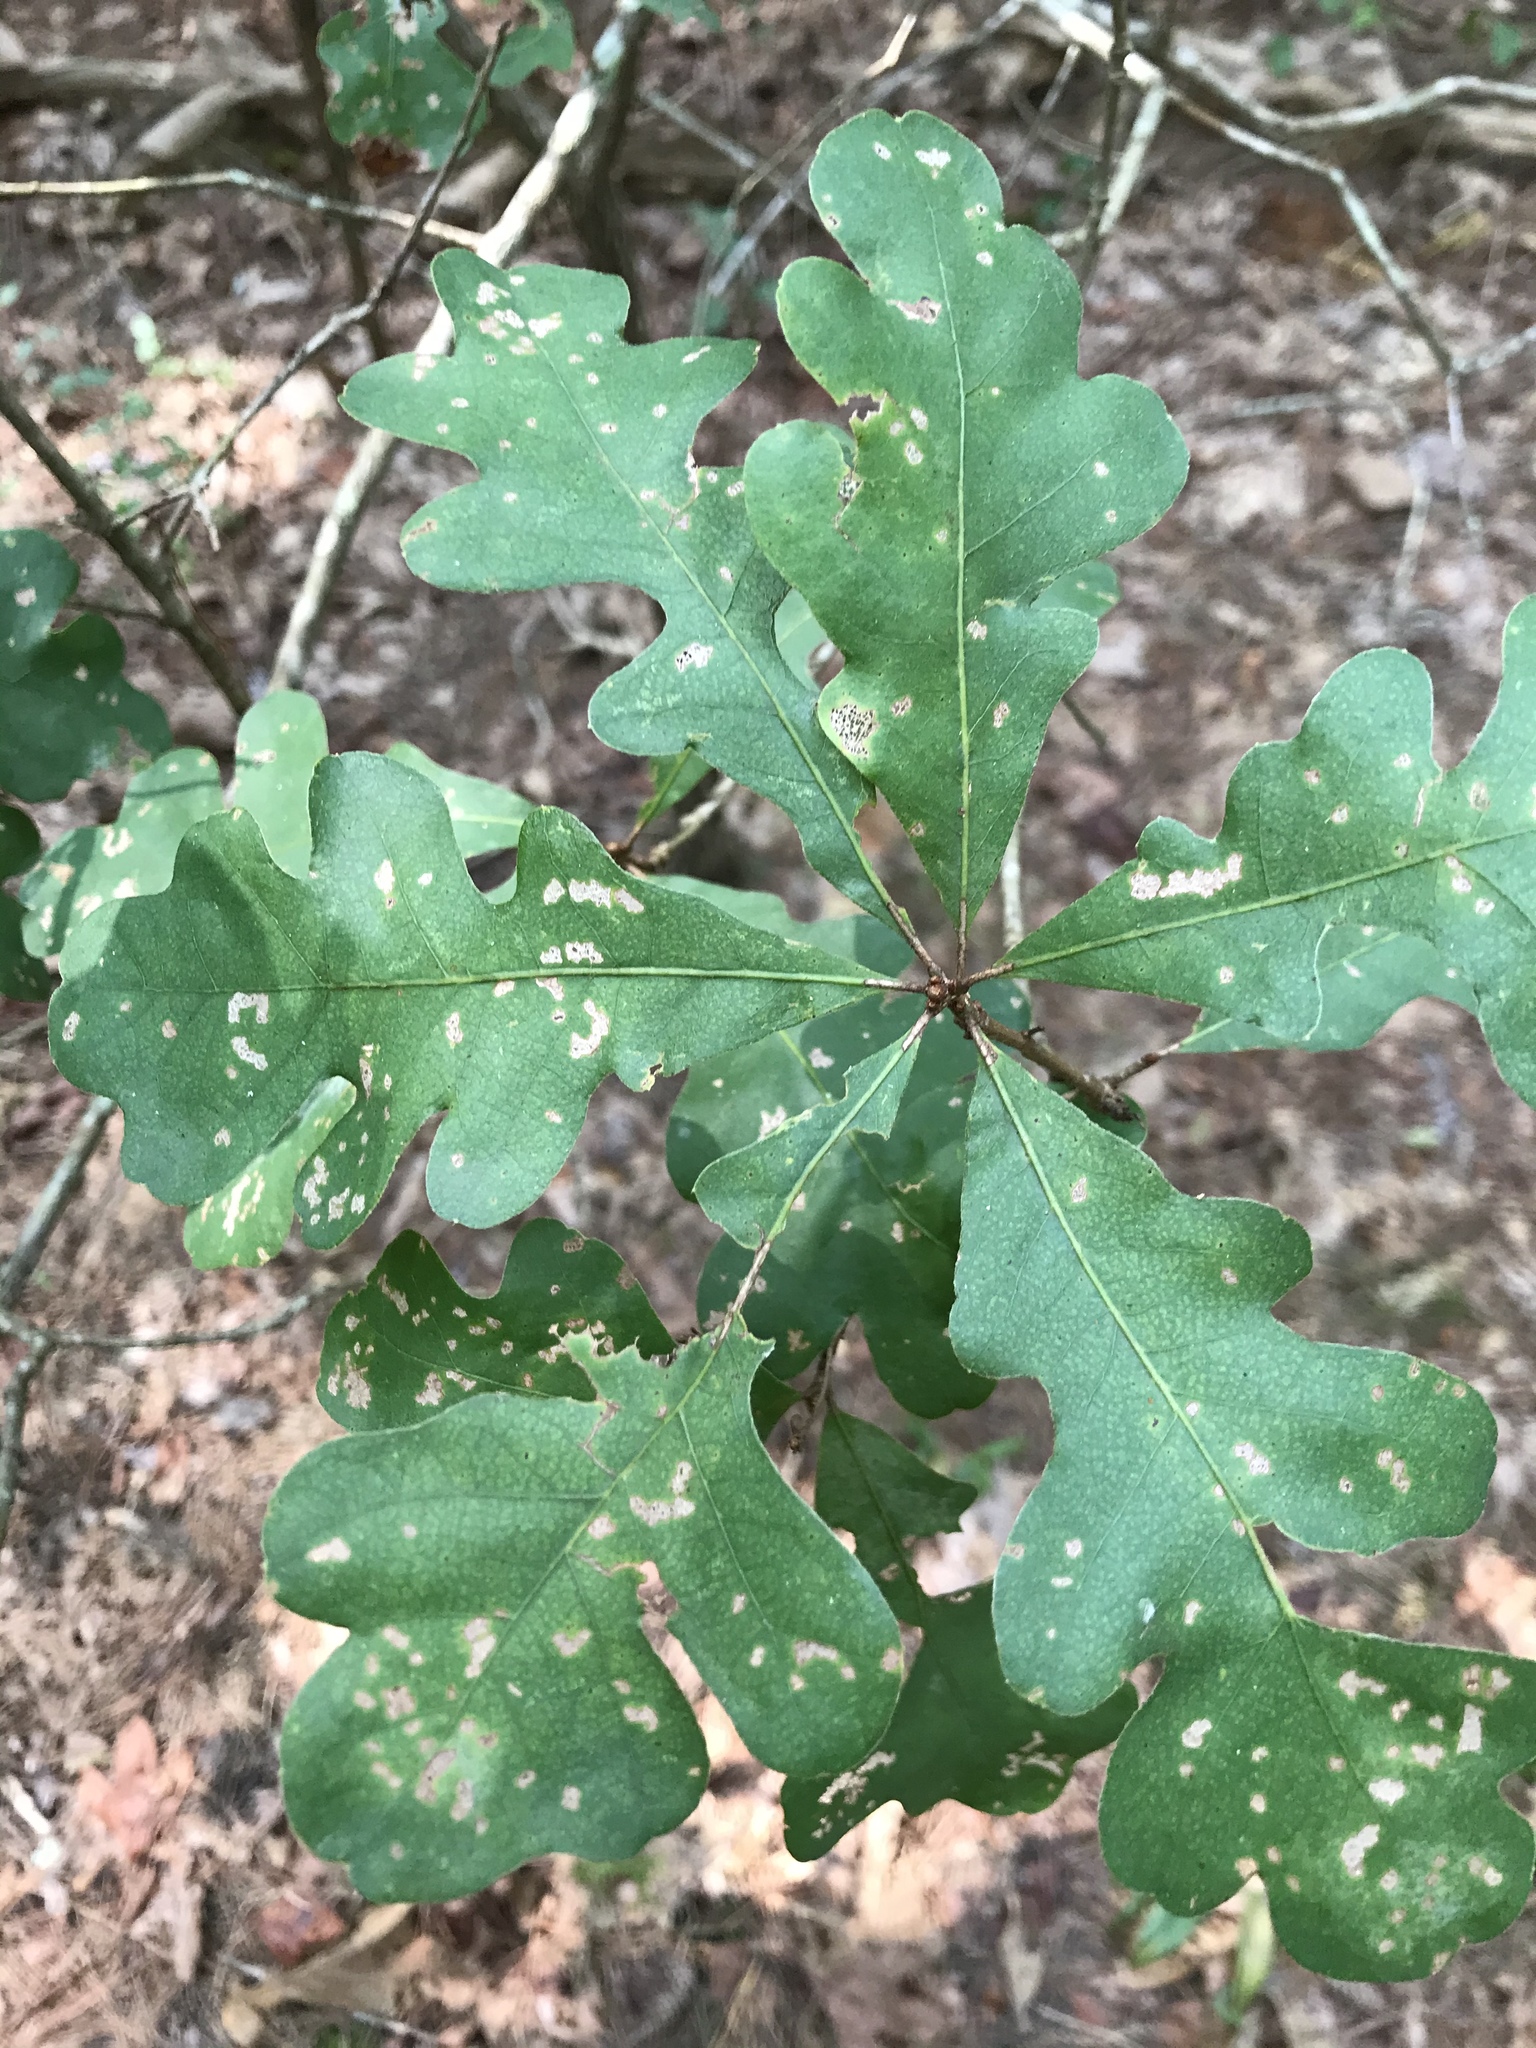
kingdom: Plantae
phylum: Tracheophyta
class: Magnoliopsida
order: Fagales
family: Fagaceae
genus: Quercus
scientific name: Quercus stellata
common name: Post oak
